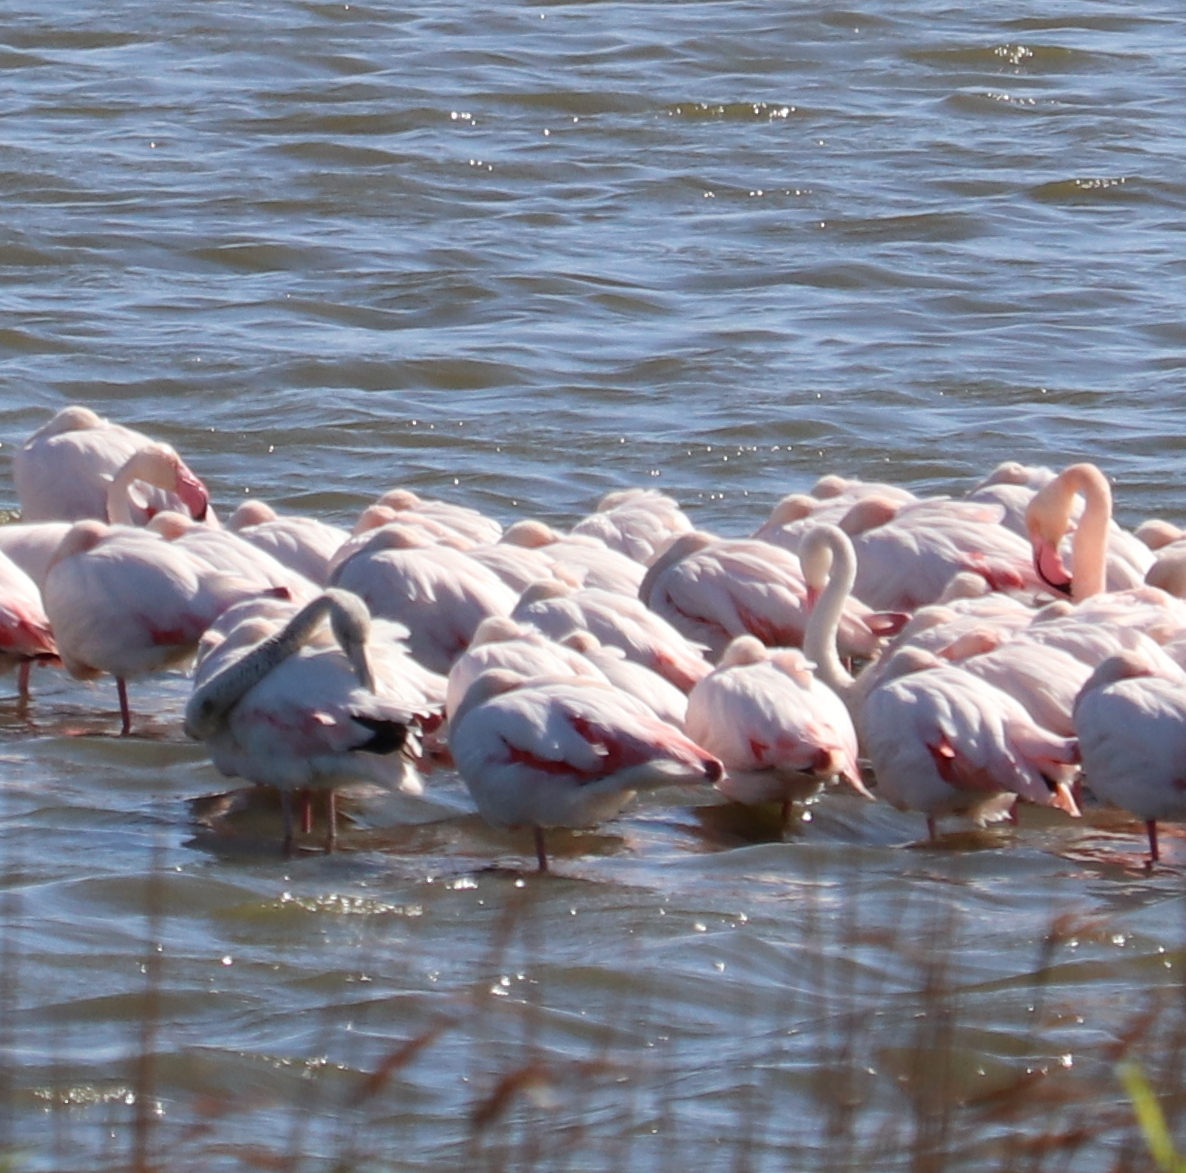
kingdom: Animalia
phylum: Chordata
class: Aves
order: Phoenicopteriformes
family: Phoenicopteridae
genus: Phoenicopterus
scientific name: Phoenicopterus roseus
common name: Greater flamingo
